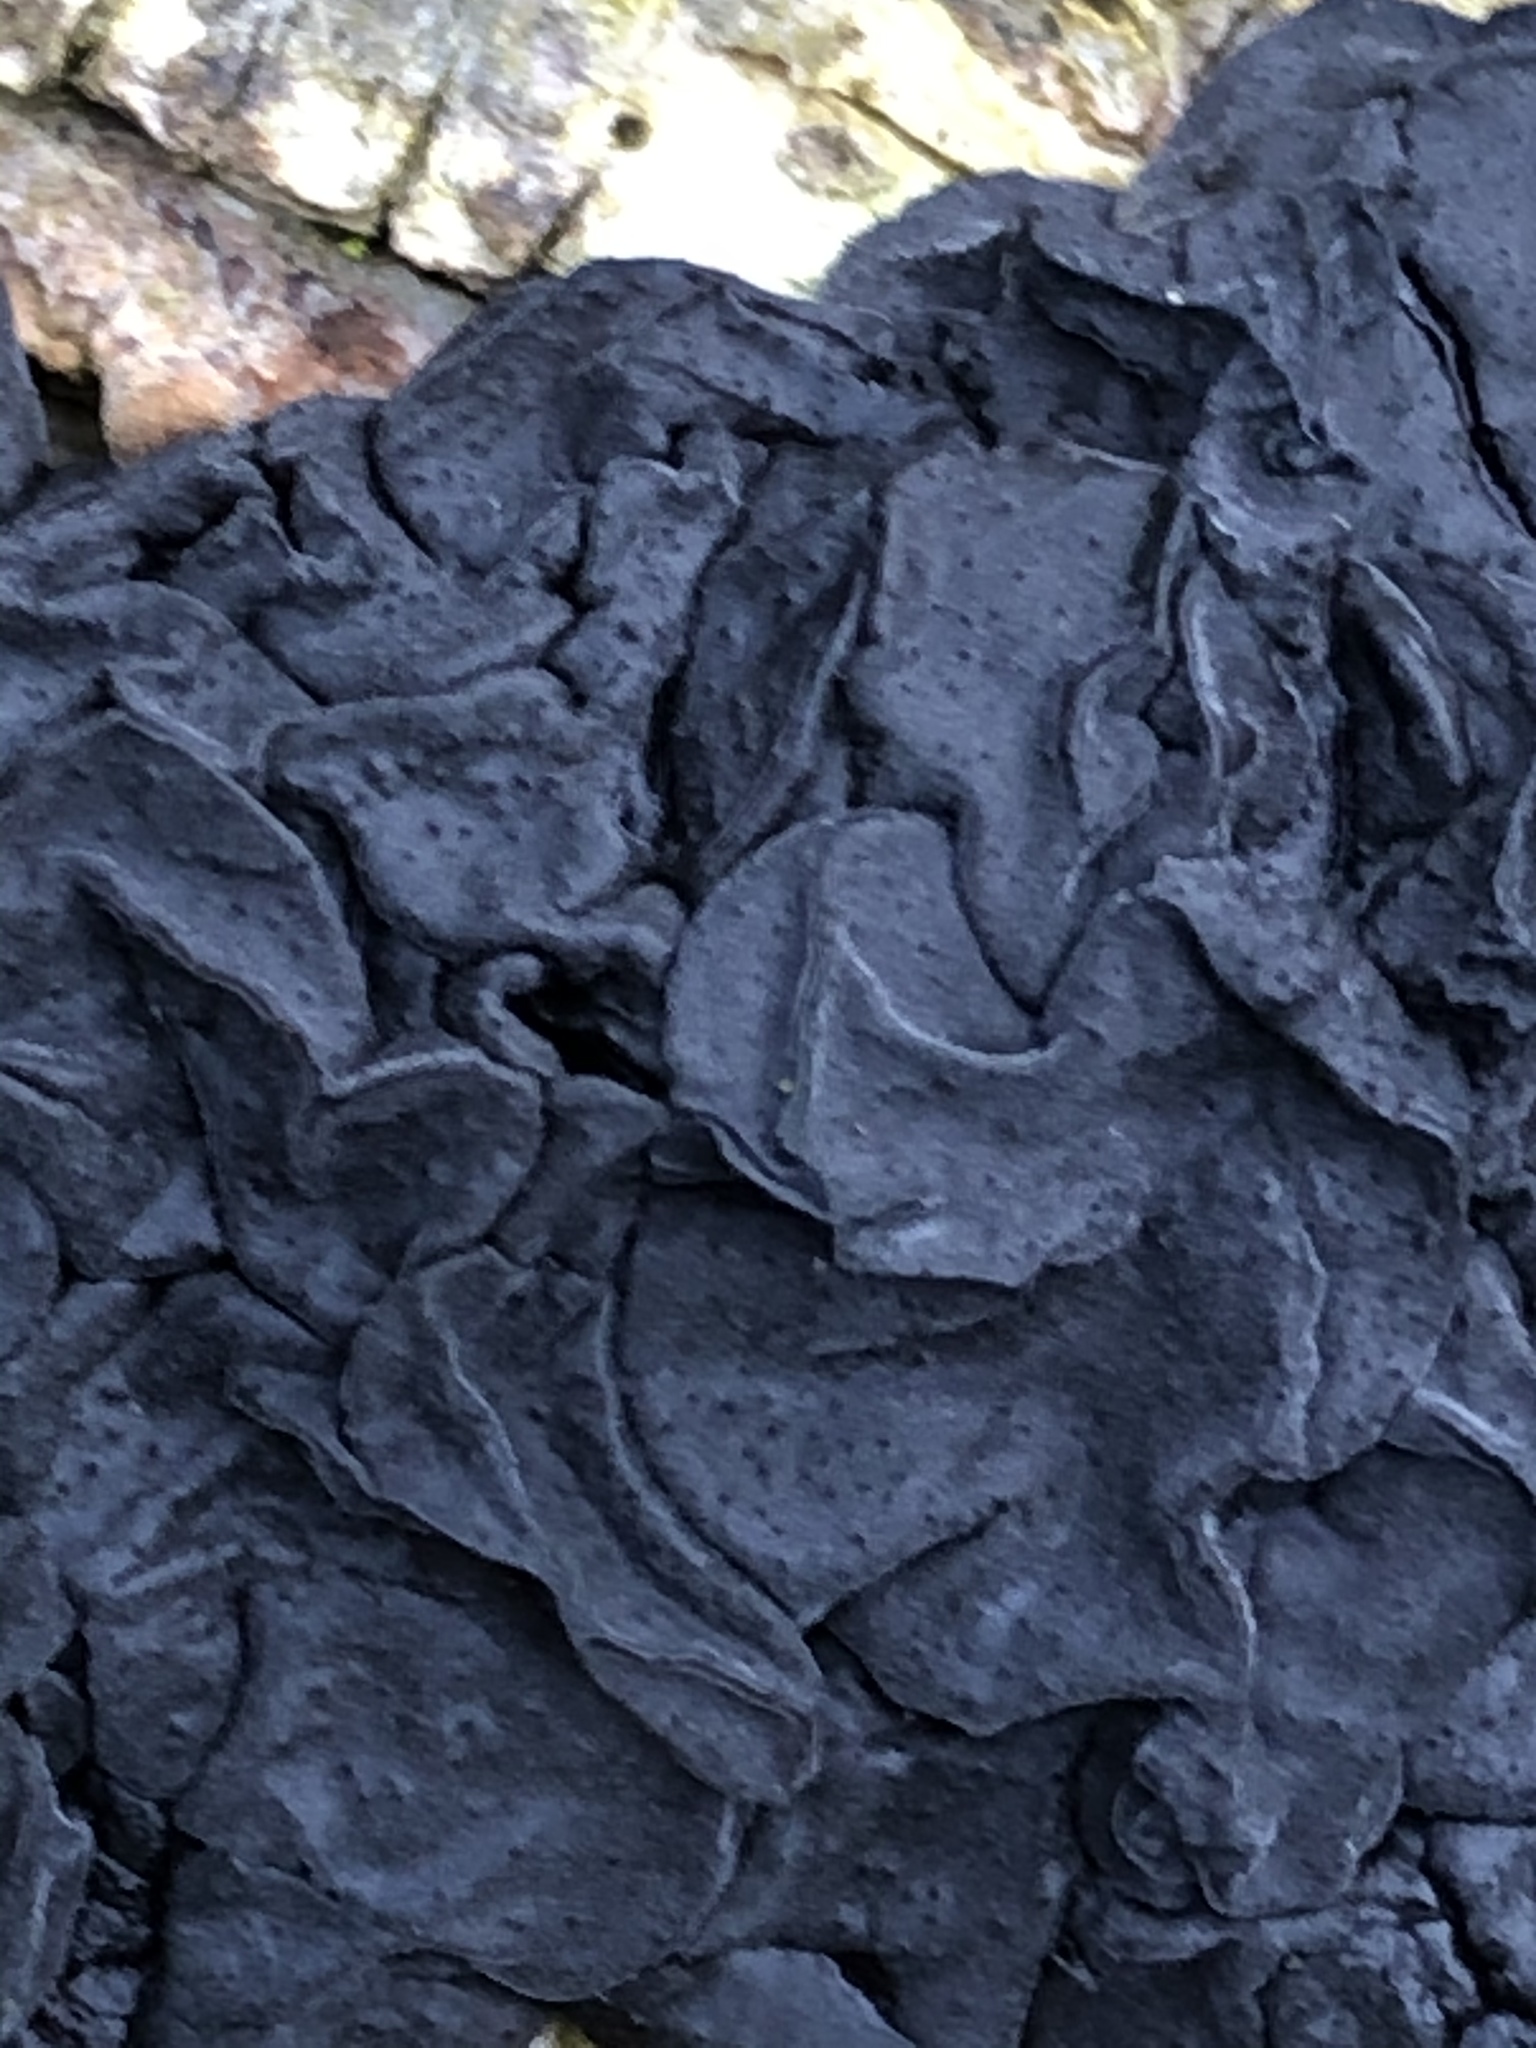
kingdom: Fungi
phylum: Basidiomycota
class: Agaricomycetes
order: Auriculariales
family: Auriculariaceae
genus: Exidia
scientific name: Exidia nigricans
